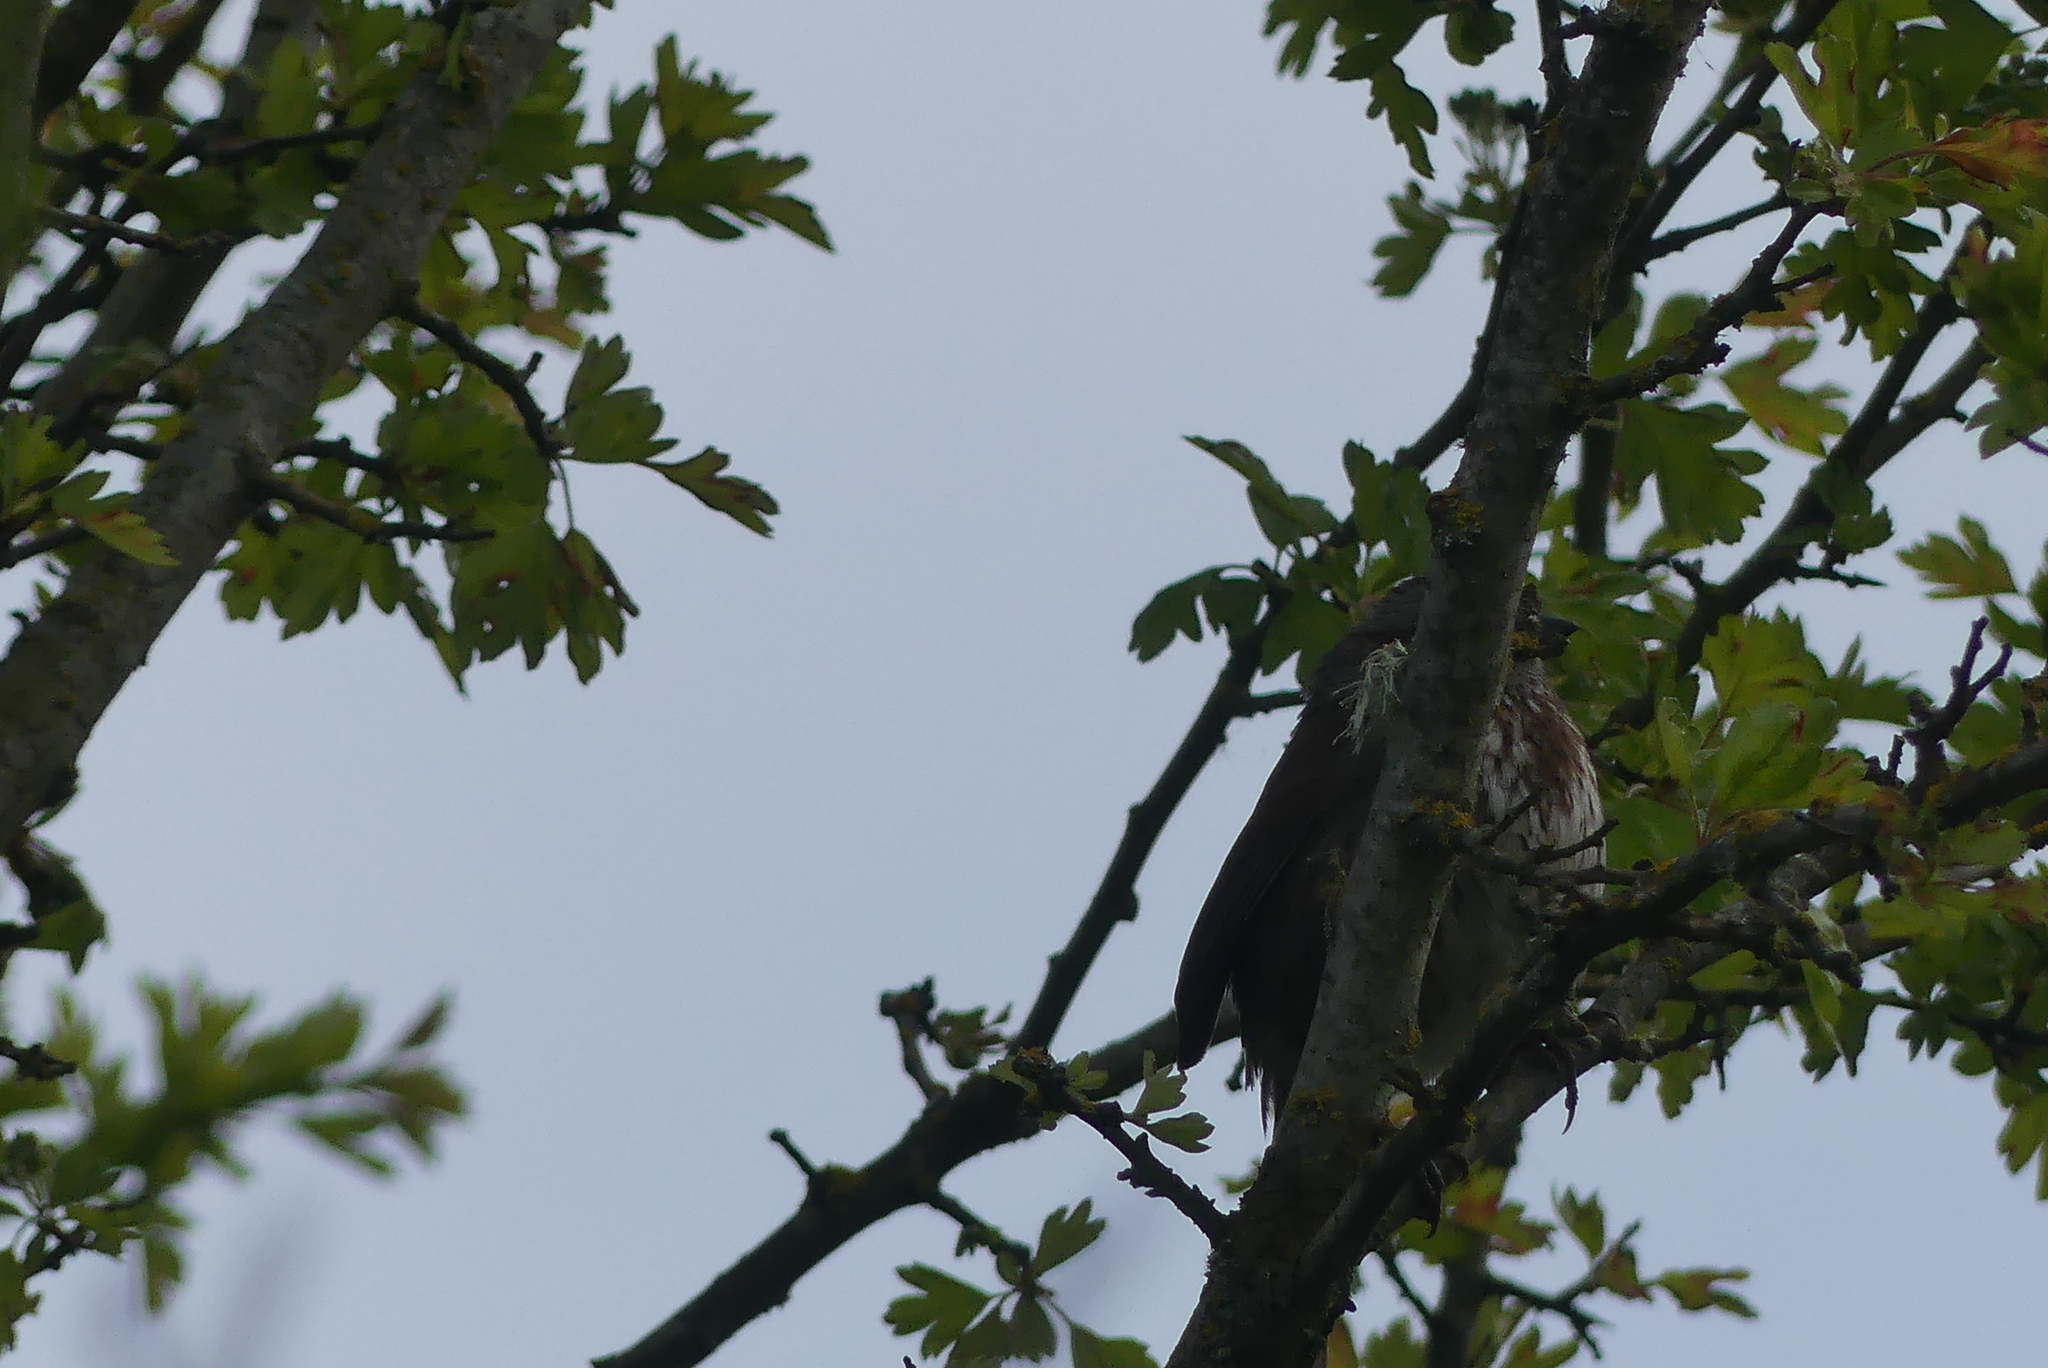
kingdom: Animalia
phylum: Chordata
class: Aves
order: Passeriformes
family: Passerellidae
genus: Melospiza
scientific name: Melospiza melodia
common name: Song sparrow
